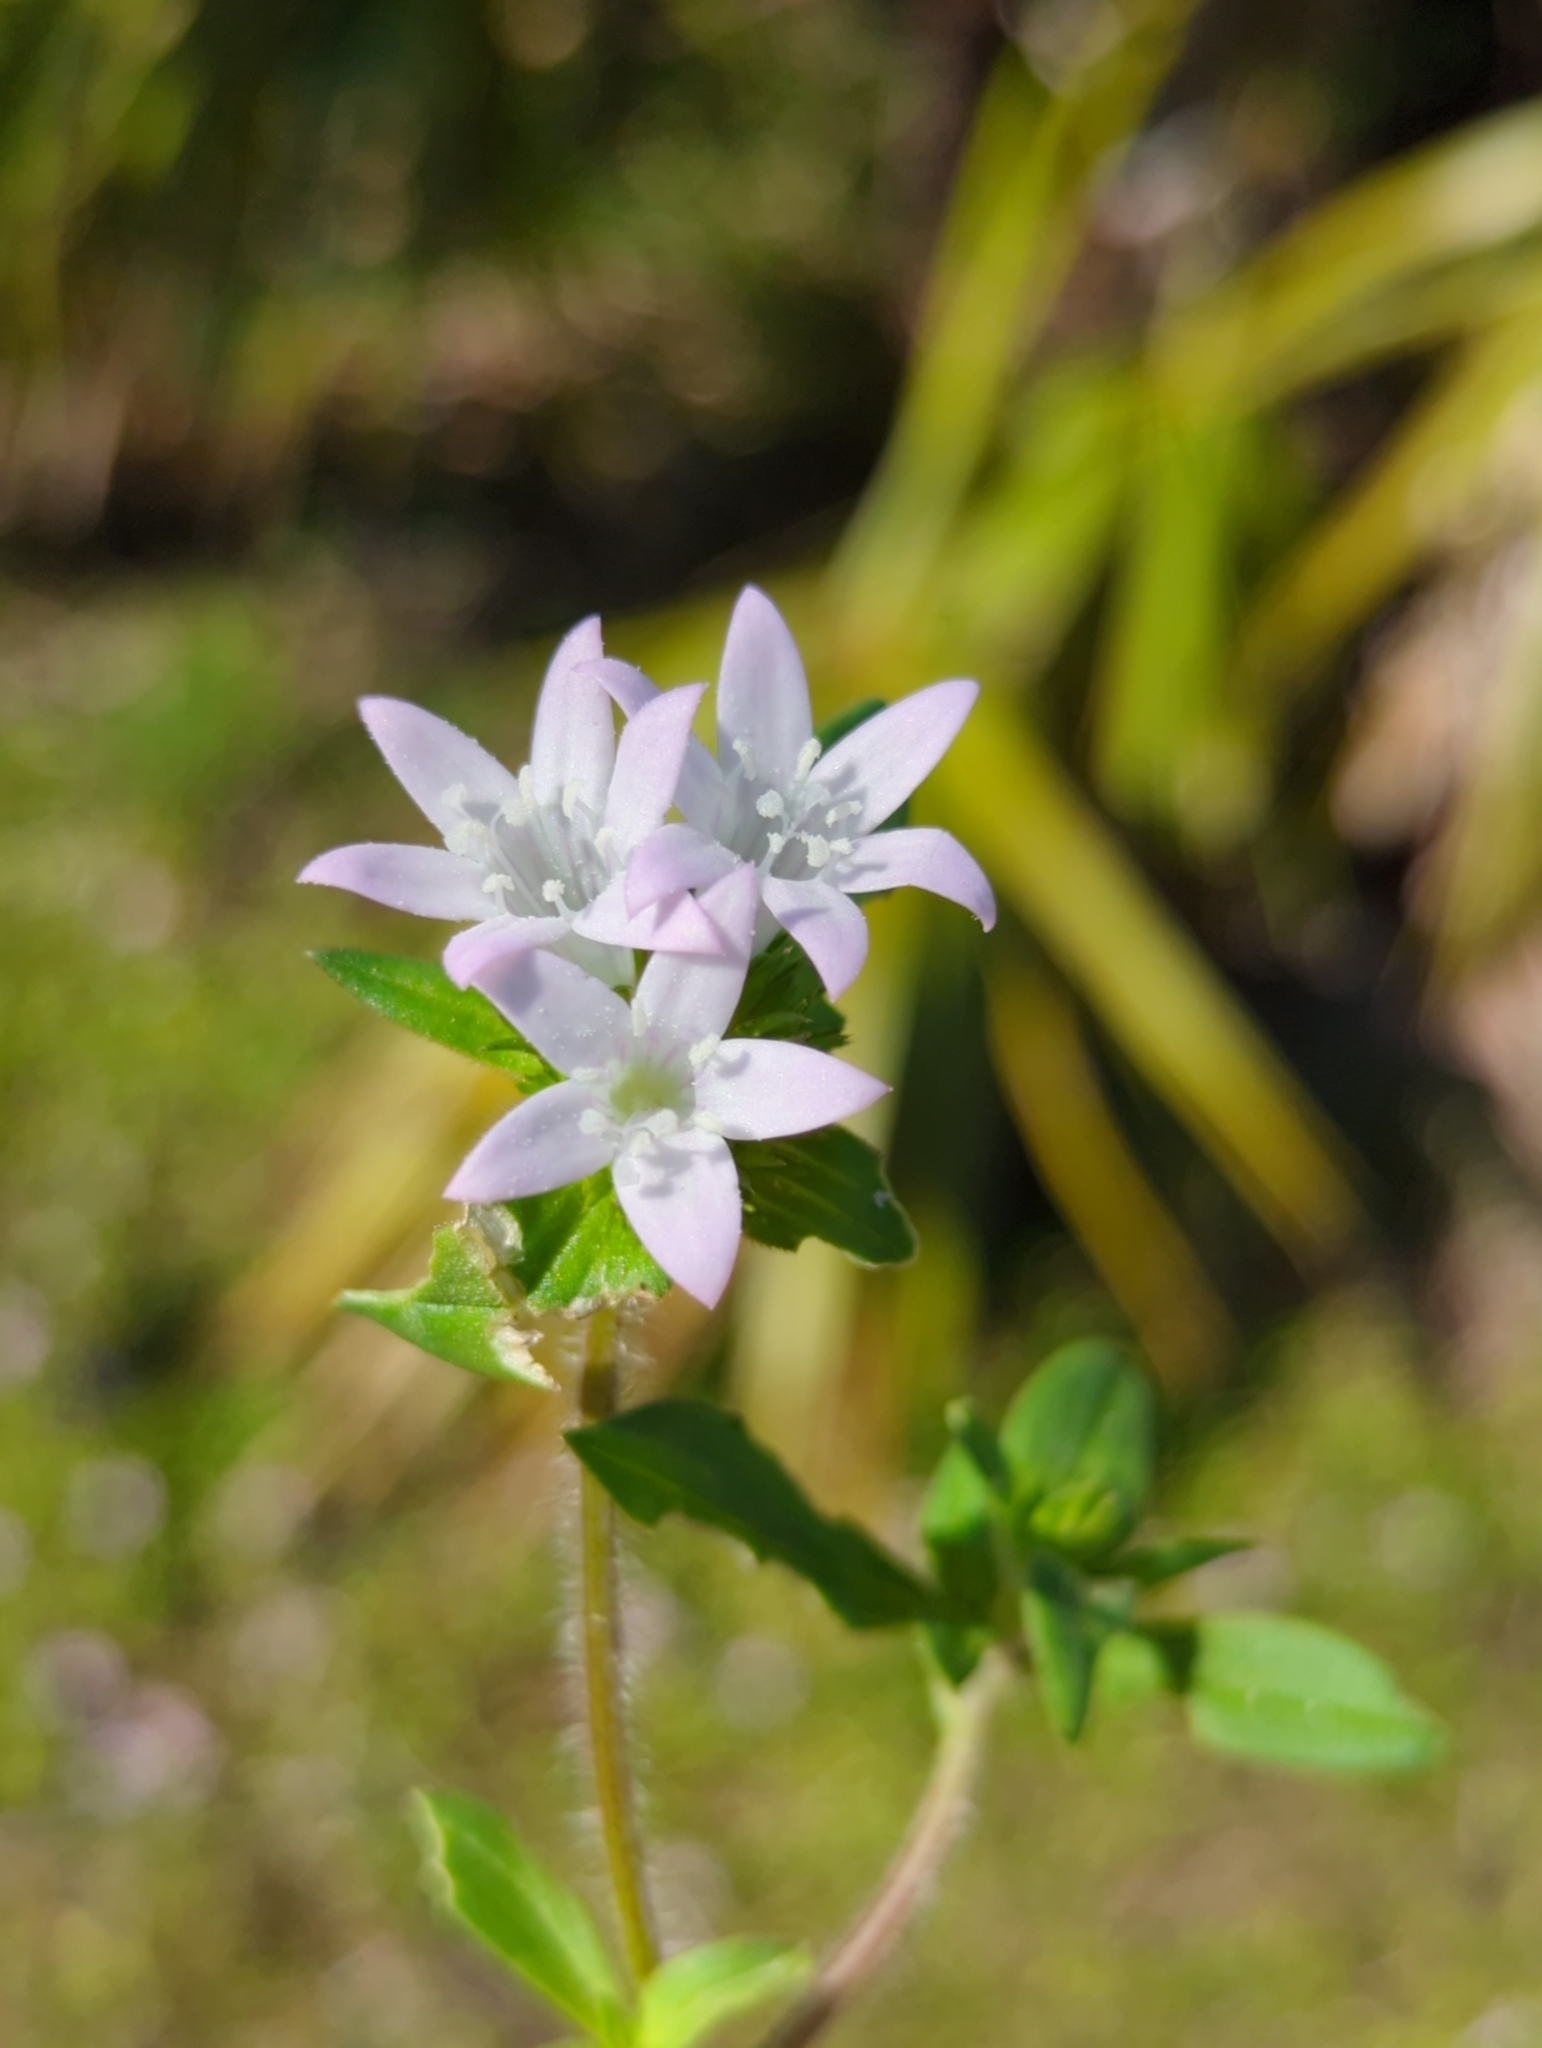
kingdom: Plantae
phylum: Tracheophyta
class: Magnoliopsida
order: Gentianales
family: Rubiaceae
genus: Richardia
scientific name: Richardia grandiflora
